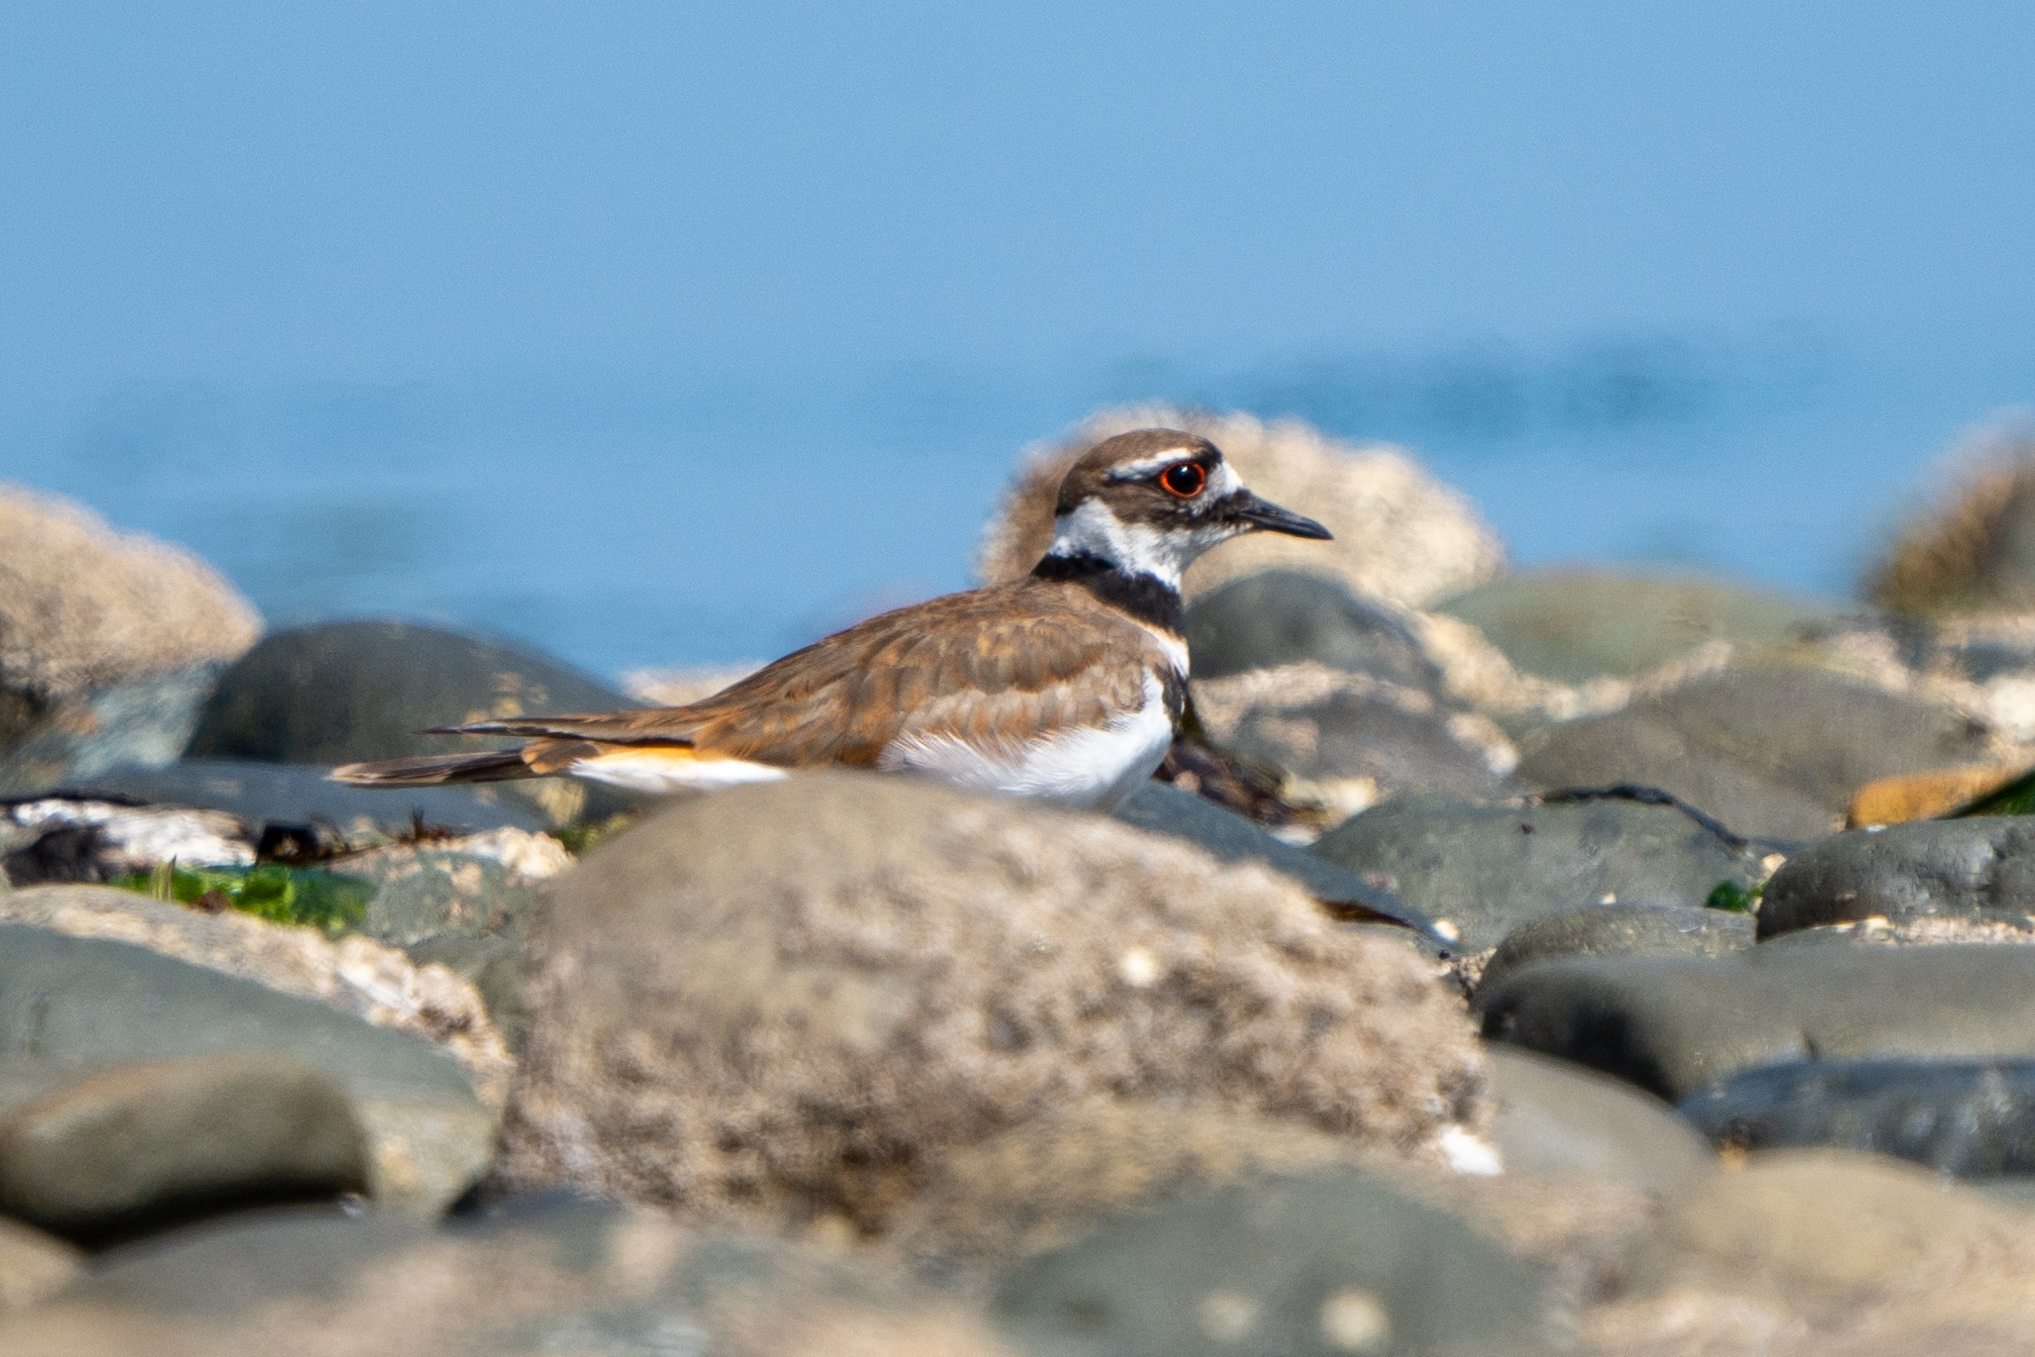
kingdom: Animalia
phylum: Chordata
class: Aves
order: Charadriiformes
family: Charadriidae
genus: Charadrius
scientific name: Charadrius vociferus
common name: Killdeer
